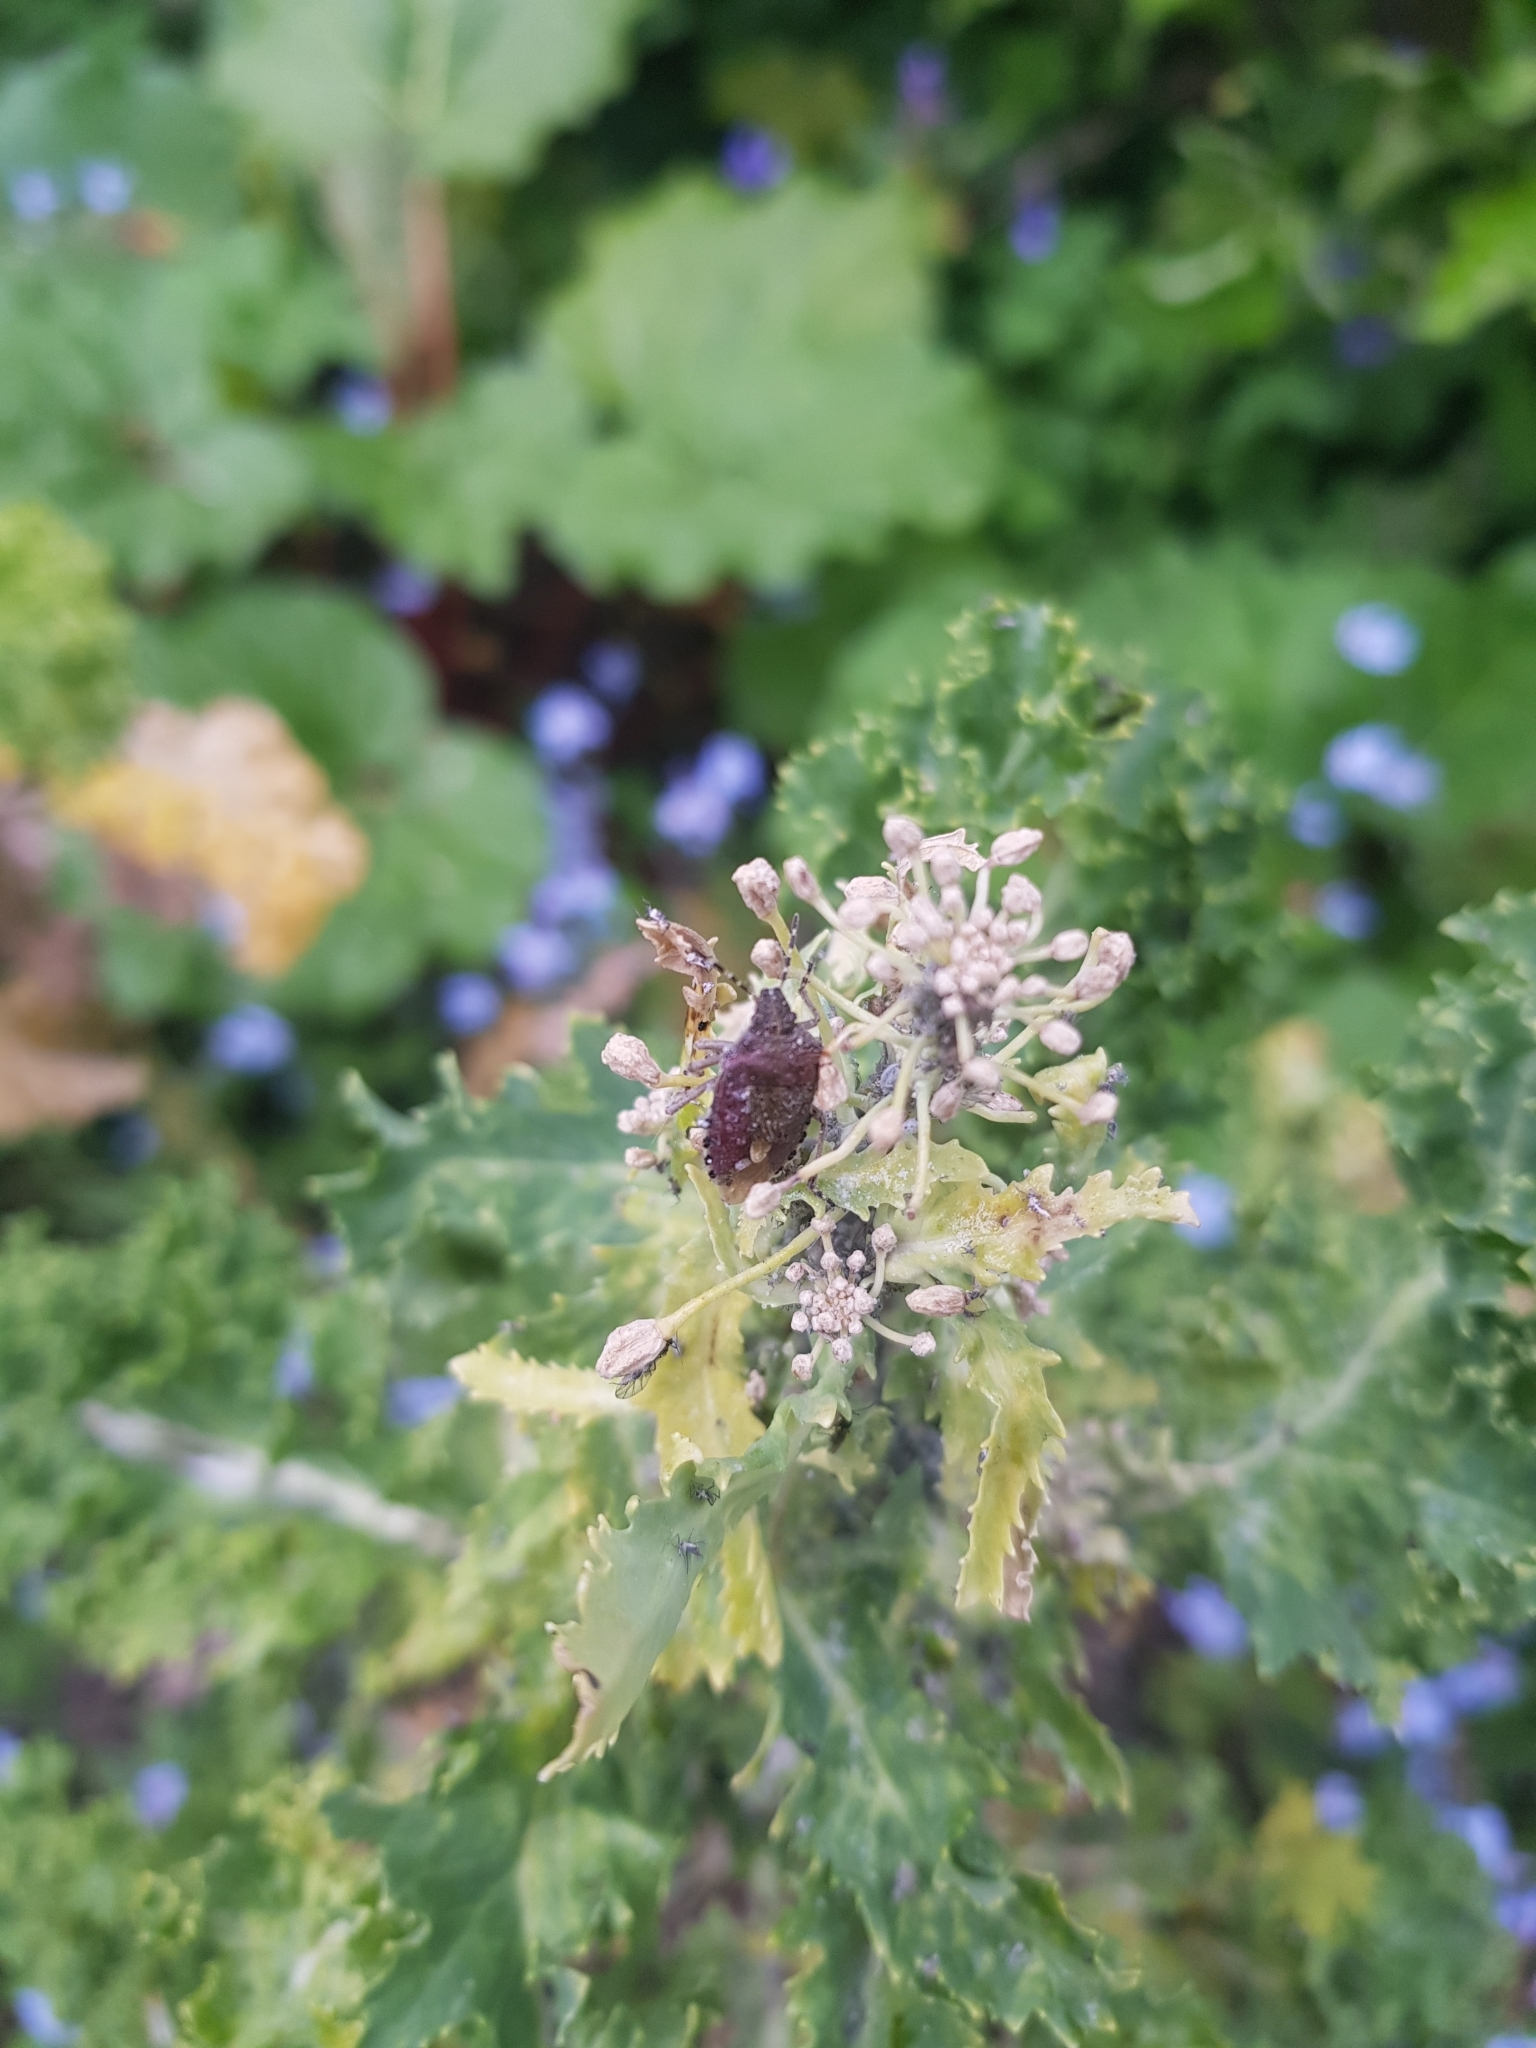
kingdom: Animalia
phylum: Arthropoda
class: Insecta
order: Hemiptera
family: Pentatomidae
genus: Dolycoris
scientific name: Dolycoris baccarum
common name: Sloe bug
